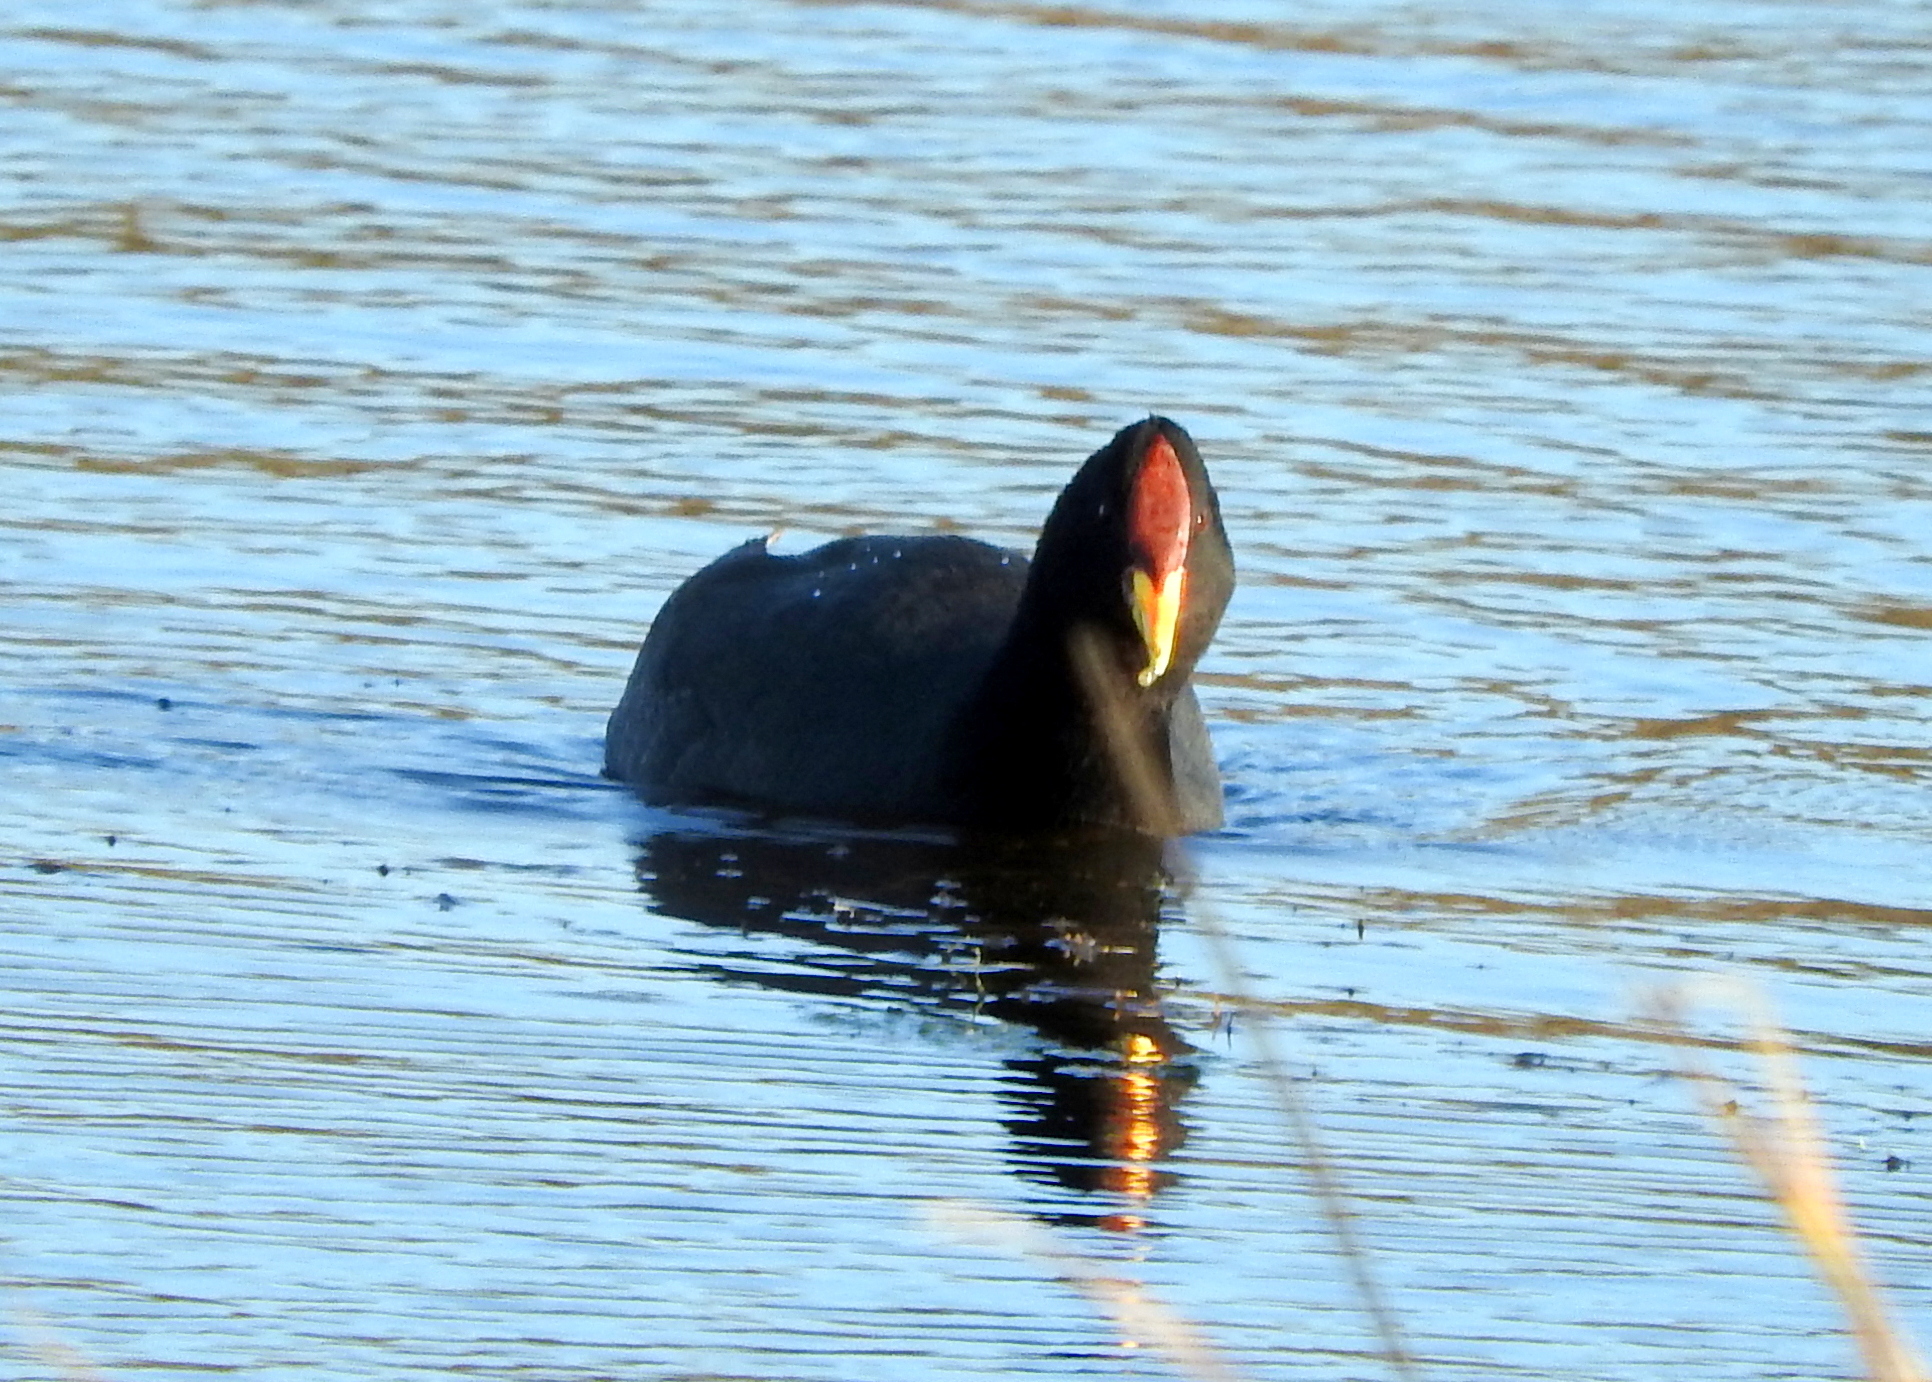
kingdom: Animalia
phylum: Chordata
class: Aves
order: Gruiformes
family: Rallidae
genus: Fulica
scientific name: Fulica rufifrons
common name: Red-fronted coot
